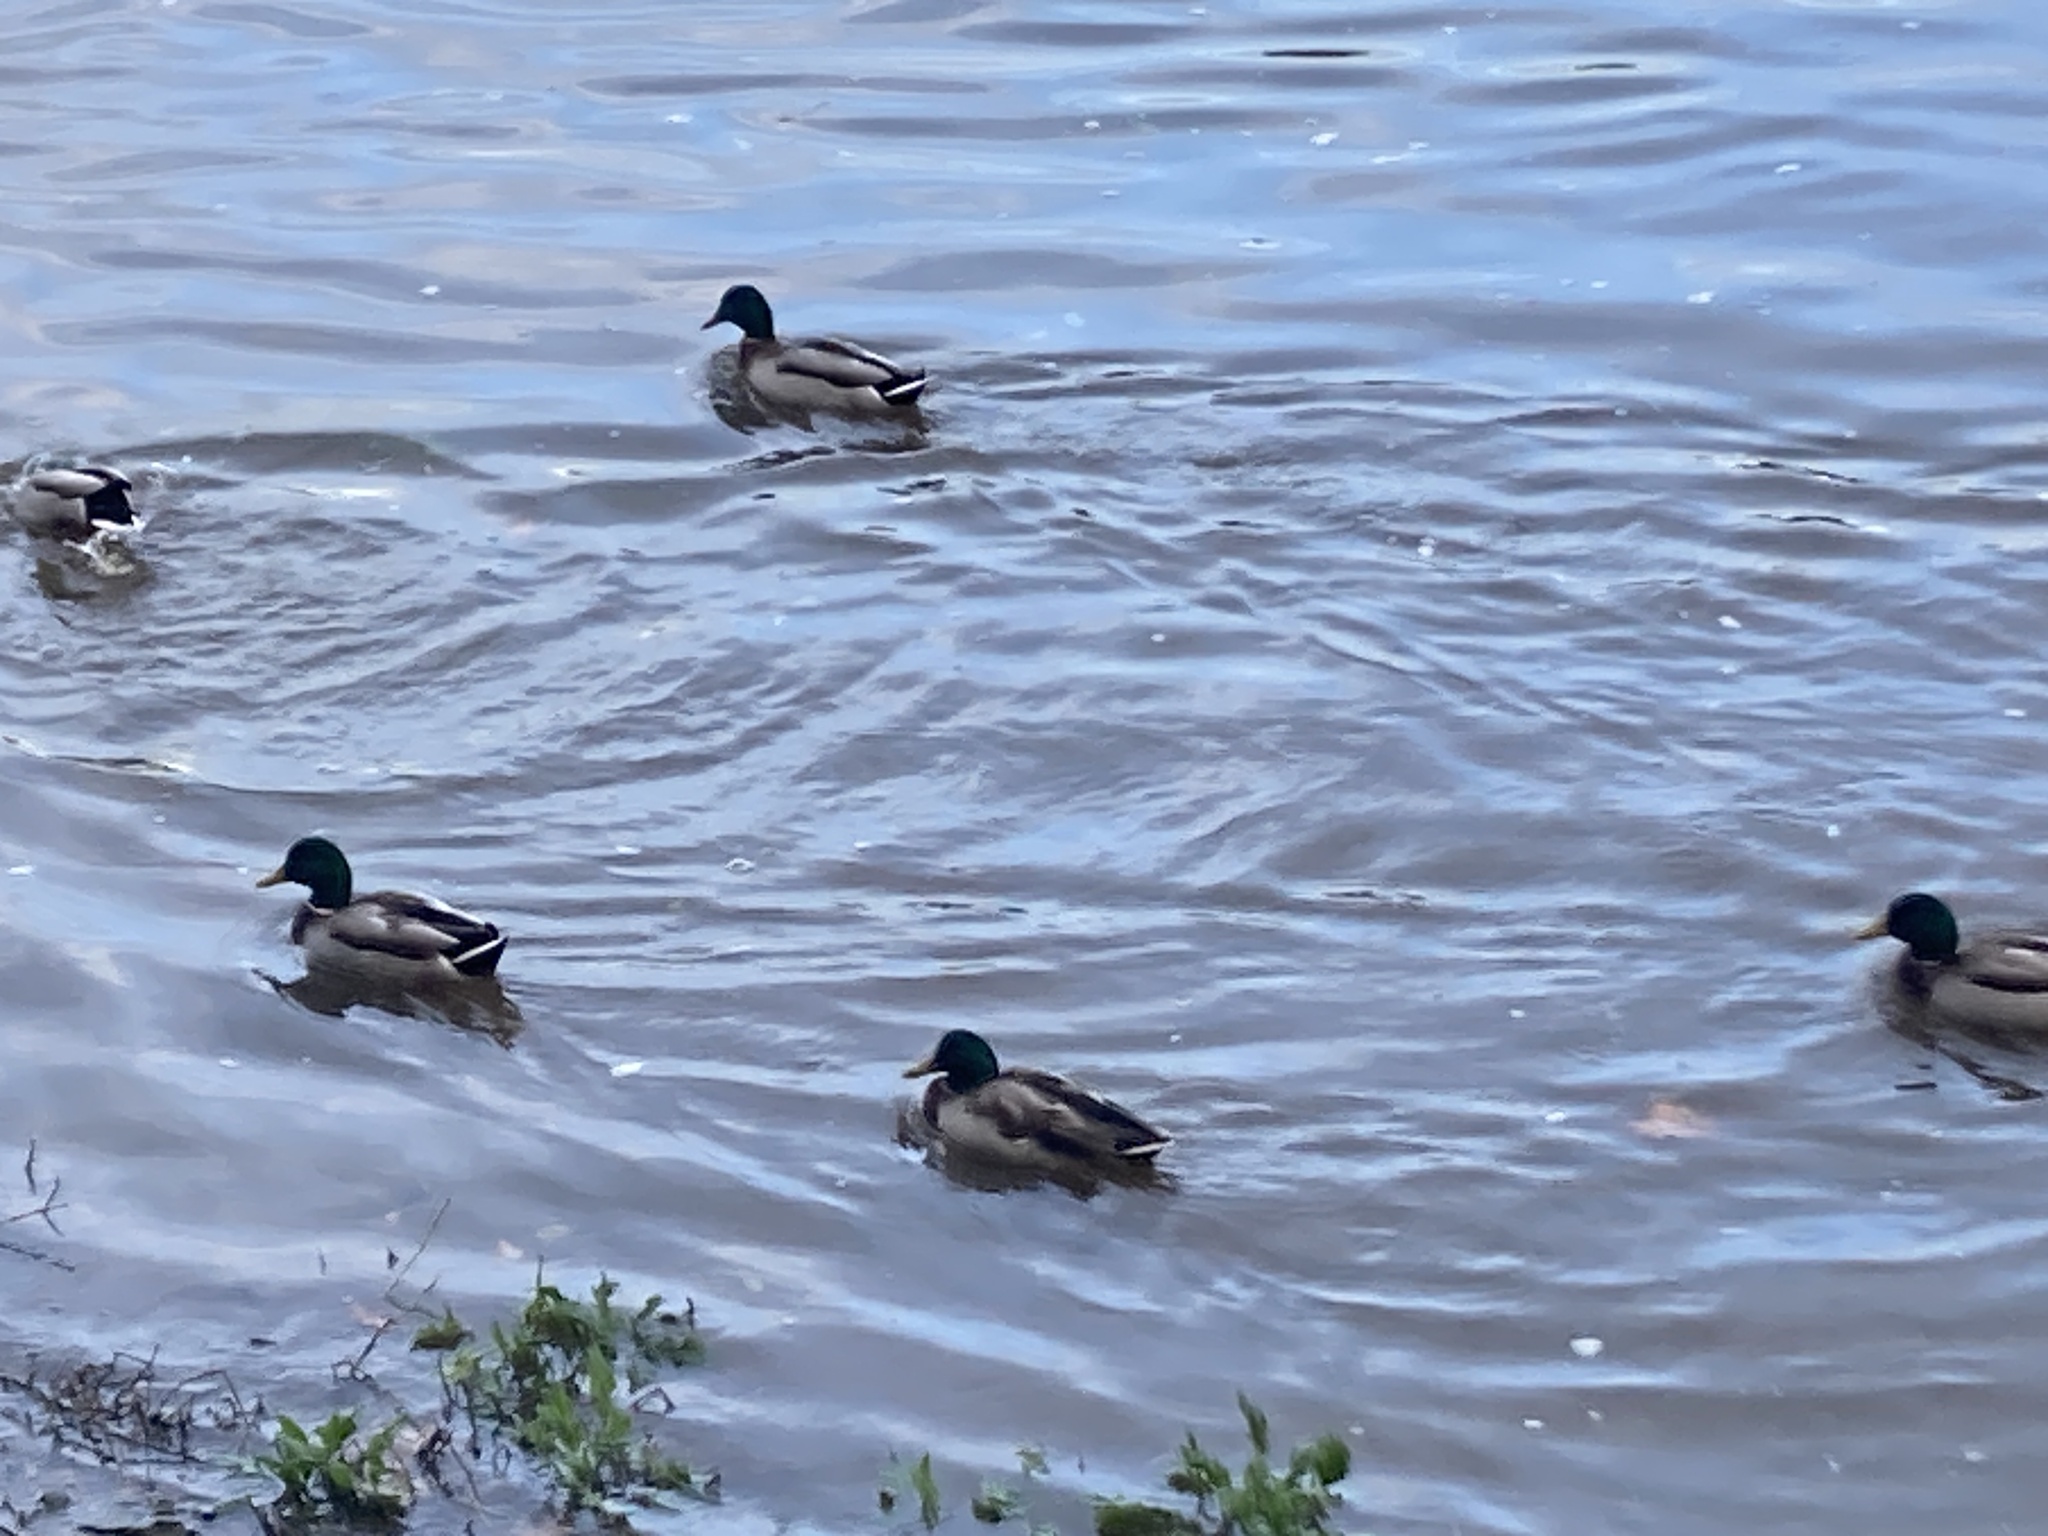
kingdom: Animalia
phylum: Chordata
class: Aves
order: Anseriformes
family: Anatidae
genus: Anas
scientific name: Anas platyrhynchos
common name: Mallard
